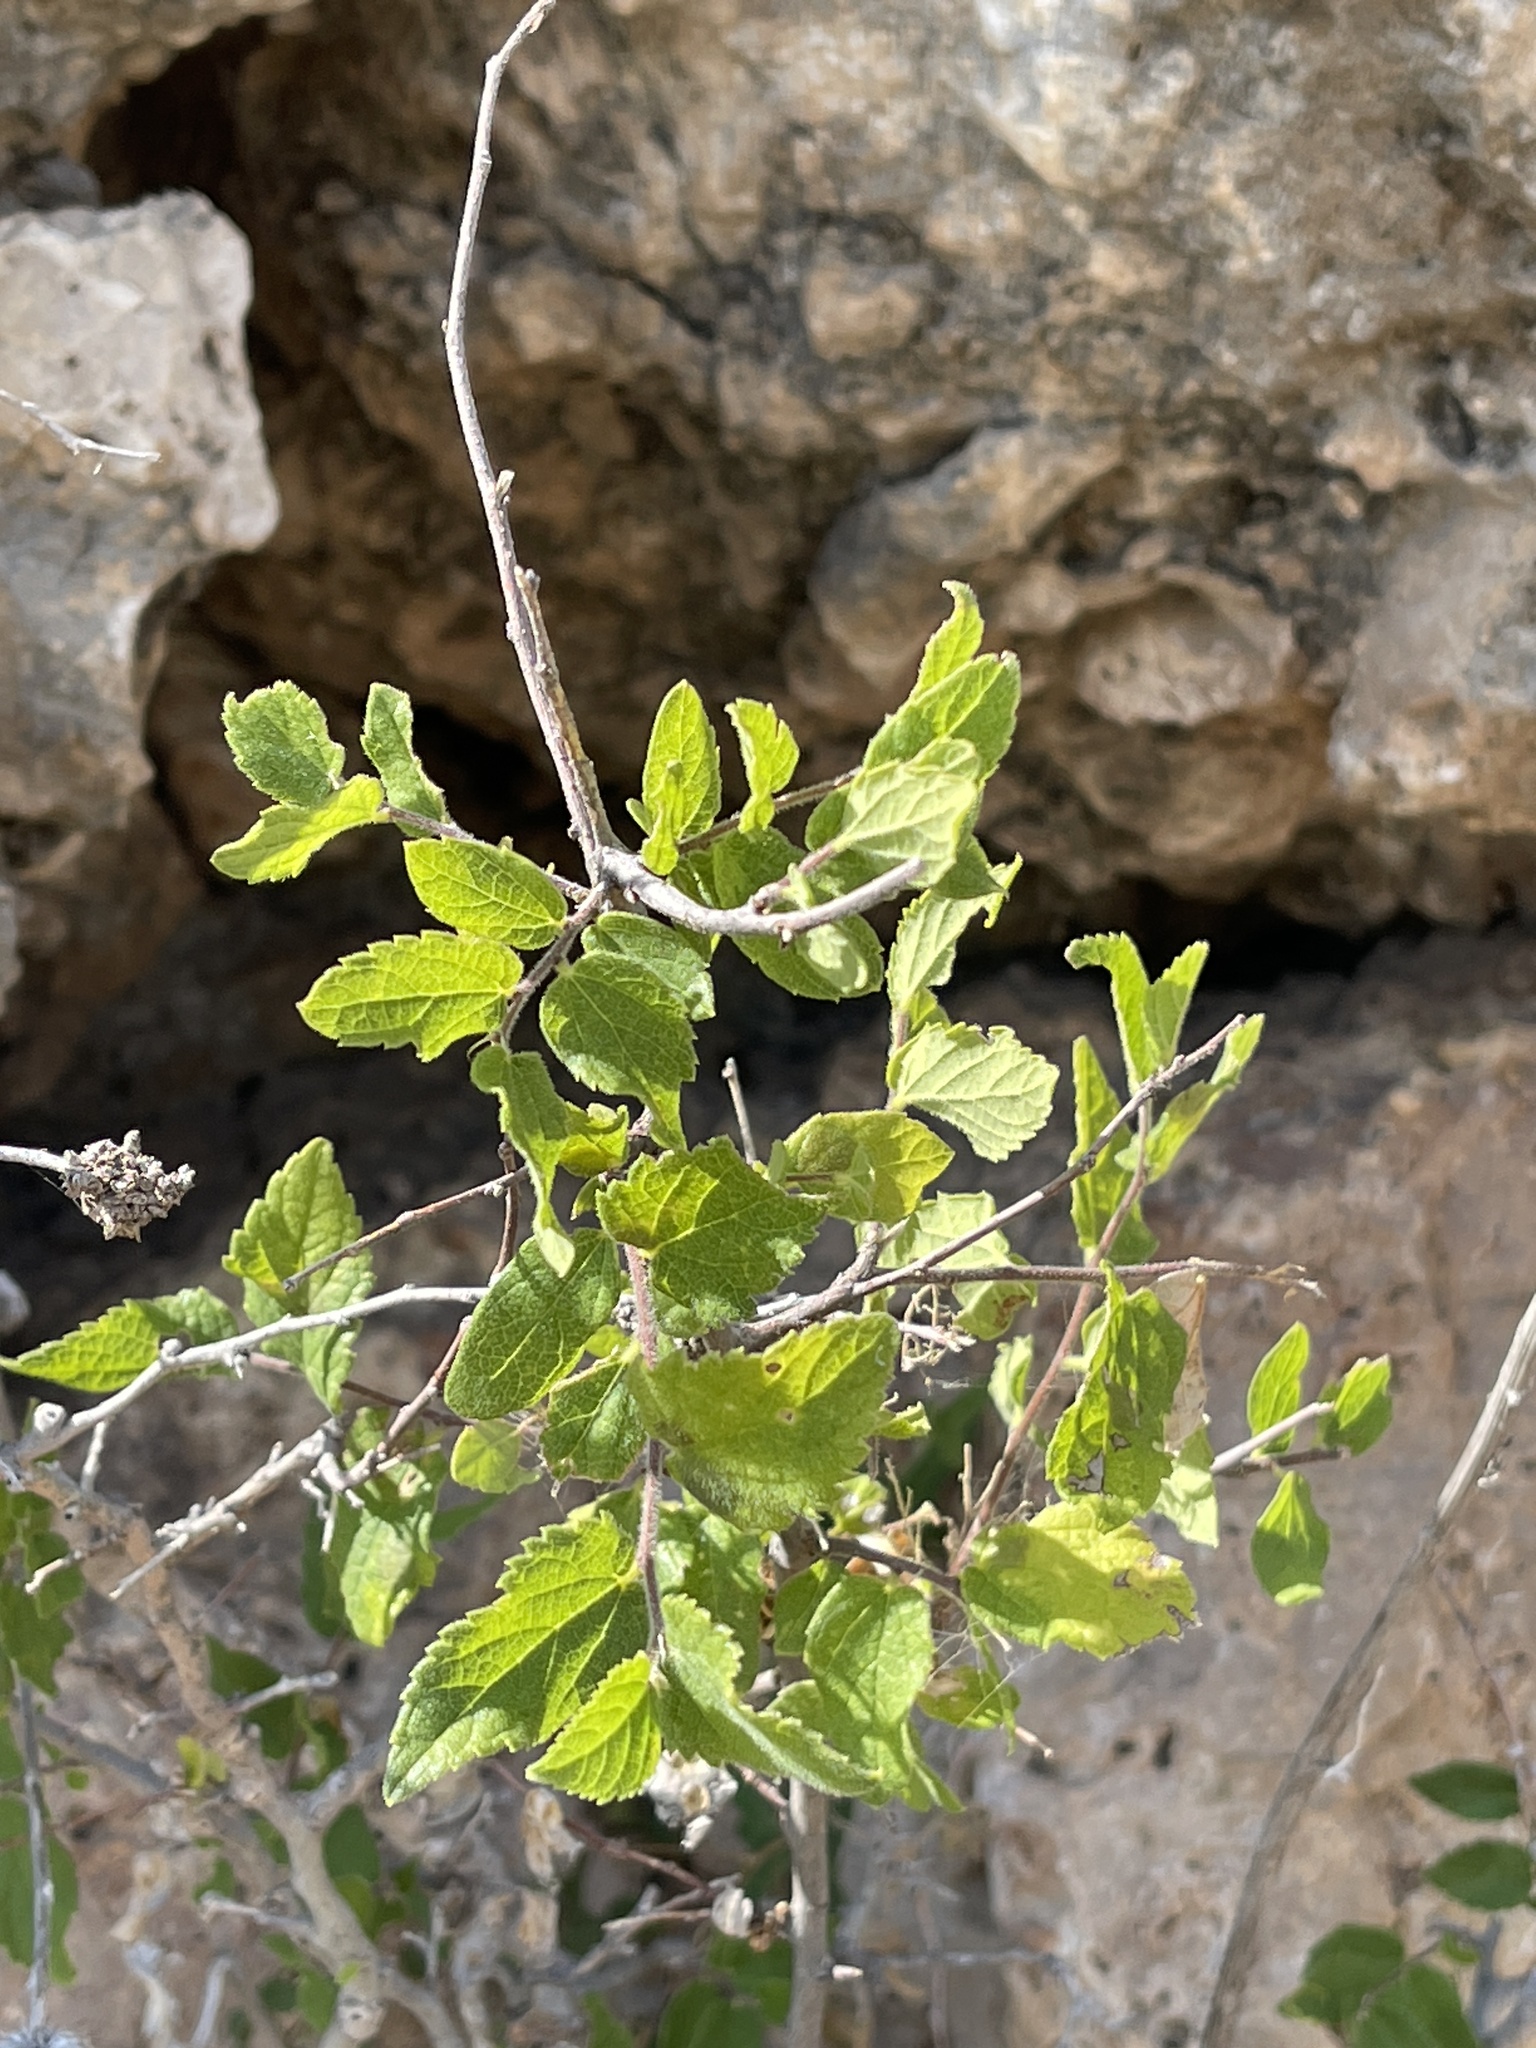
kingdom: Plantae
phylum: Tracheophyta
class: Magnoliopsida
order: Rosales
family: Cannabaceae
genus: Celtis
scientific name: Celtis reticulata
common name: Netleaf hackberry
